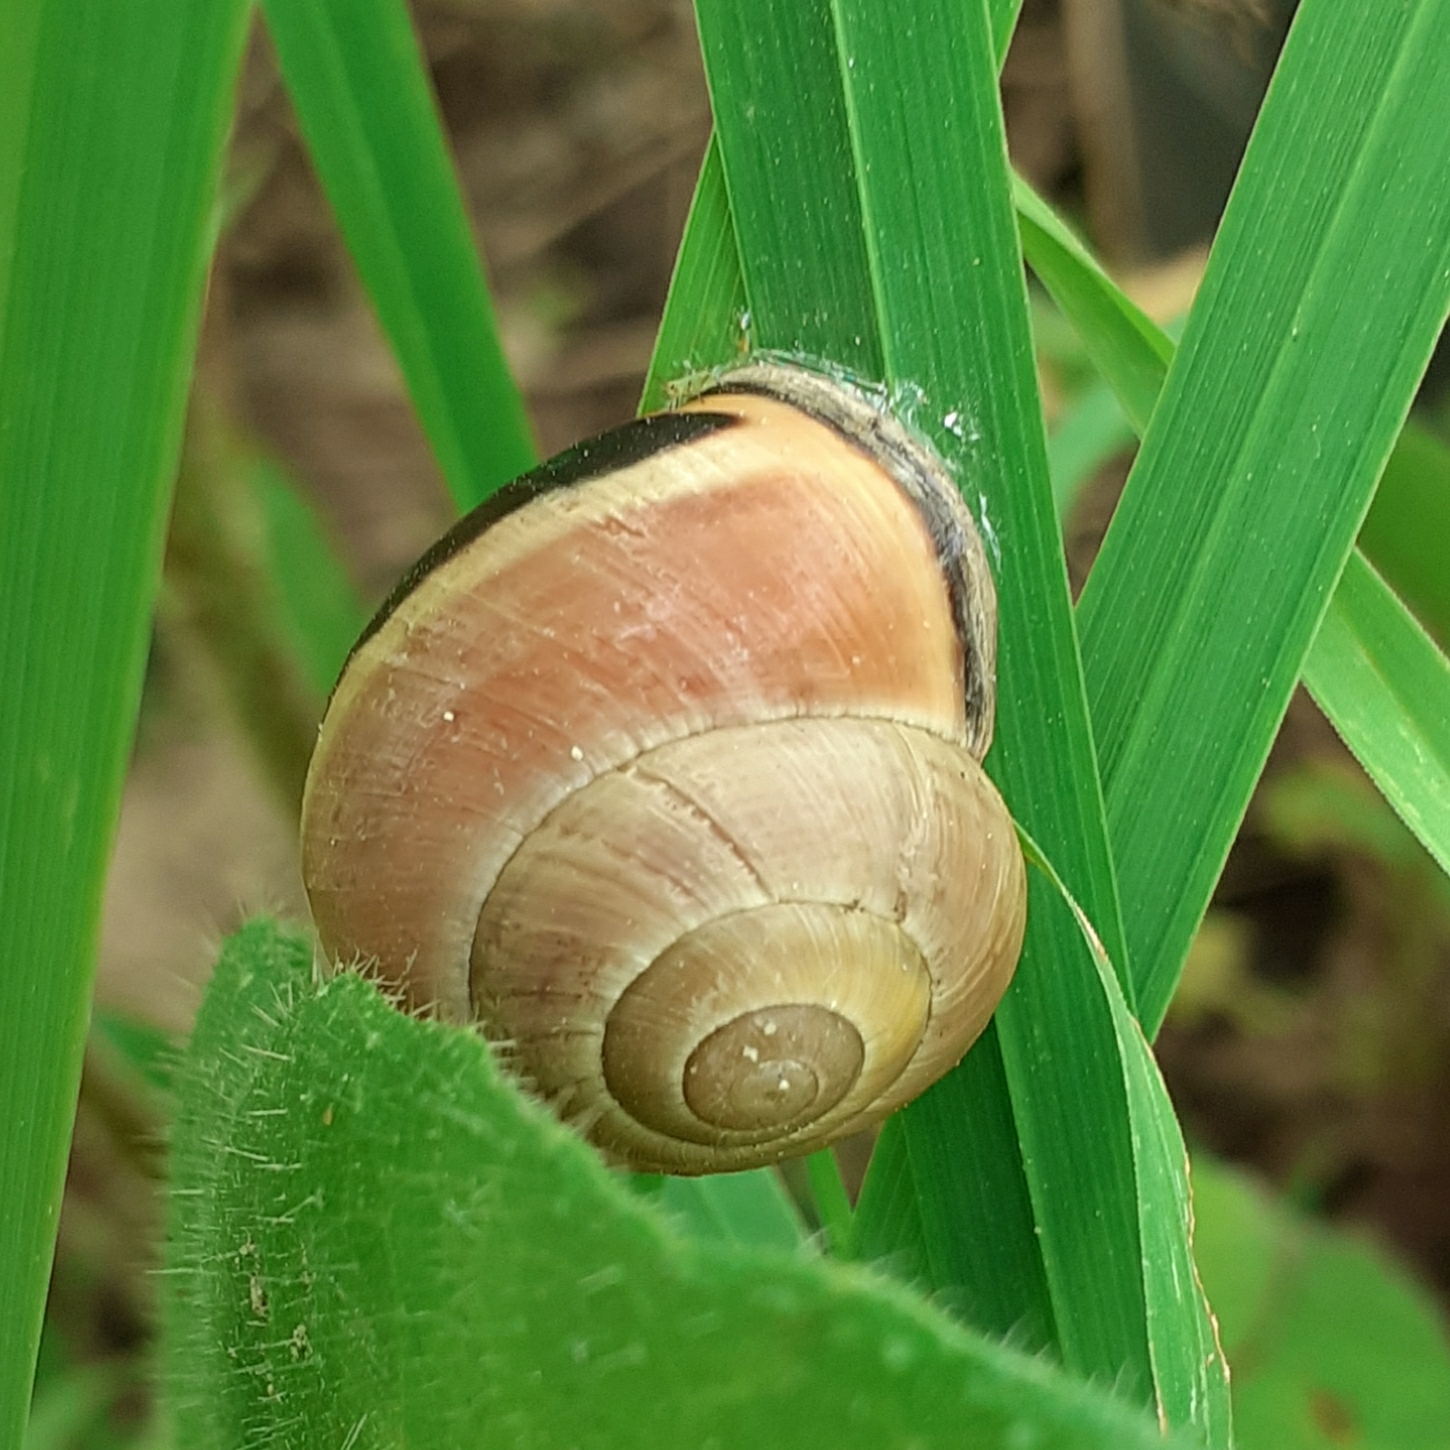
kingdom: Animalia
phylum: Mollusca
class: Gastropoda
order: Stylommatophora
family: Helicidae
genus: Cepaea
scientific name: Cepaea nemoralis
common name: Grovesnail
